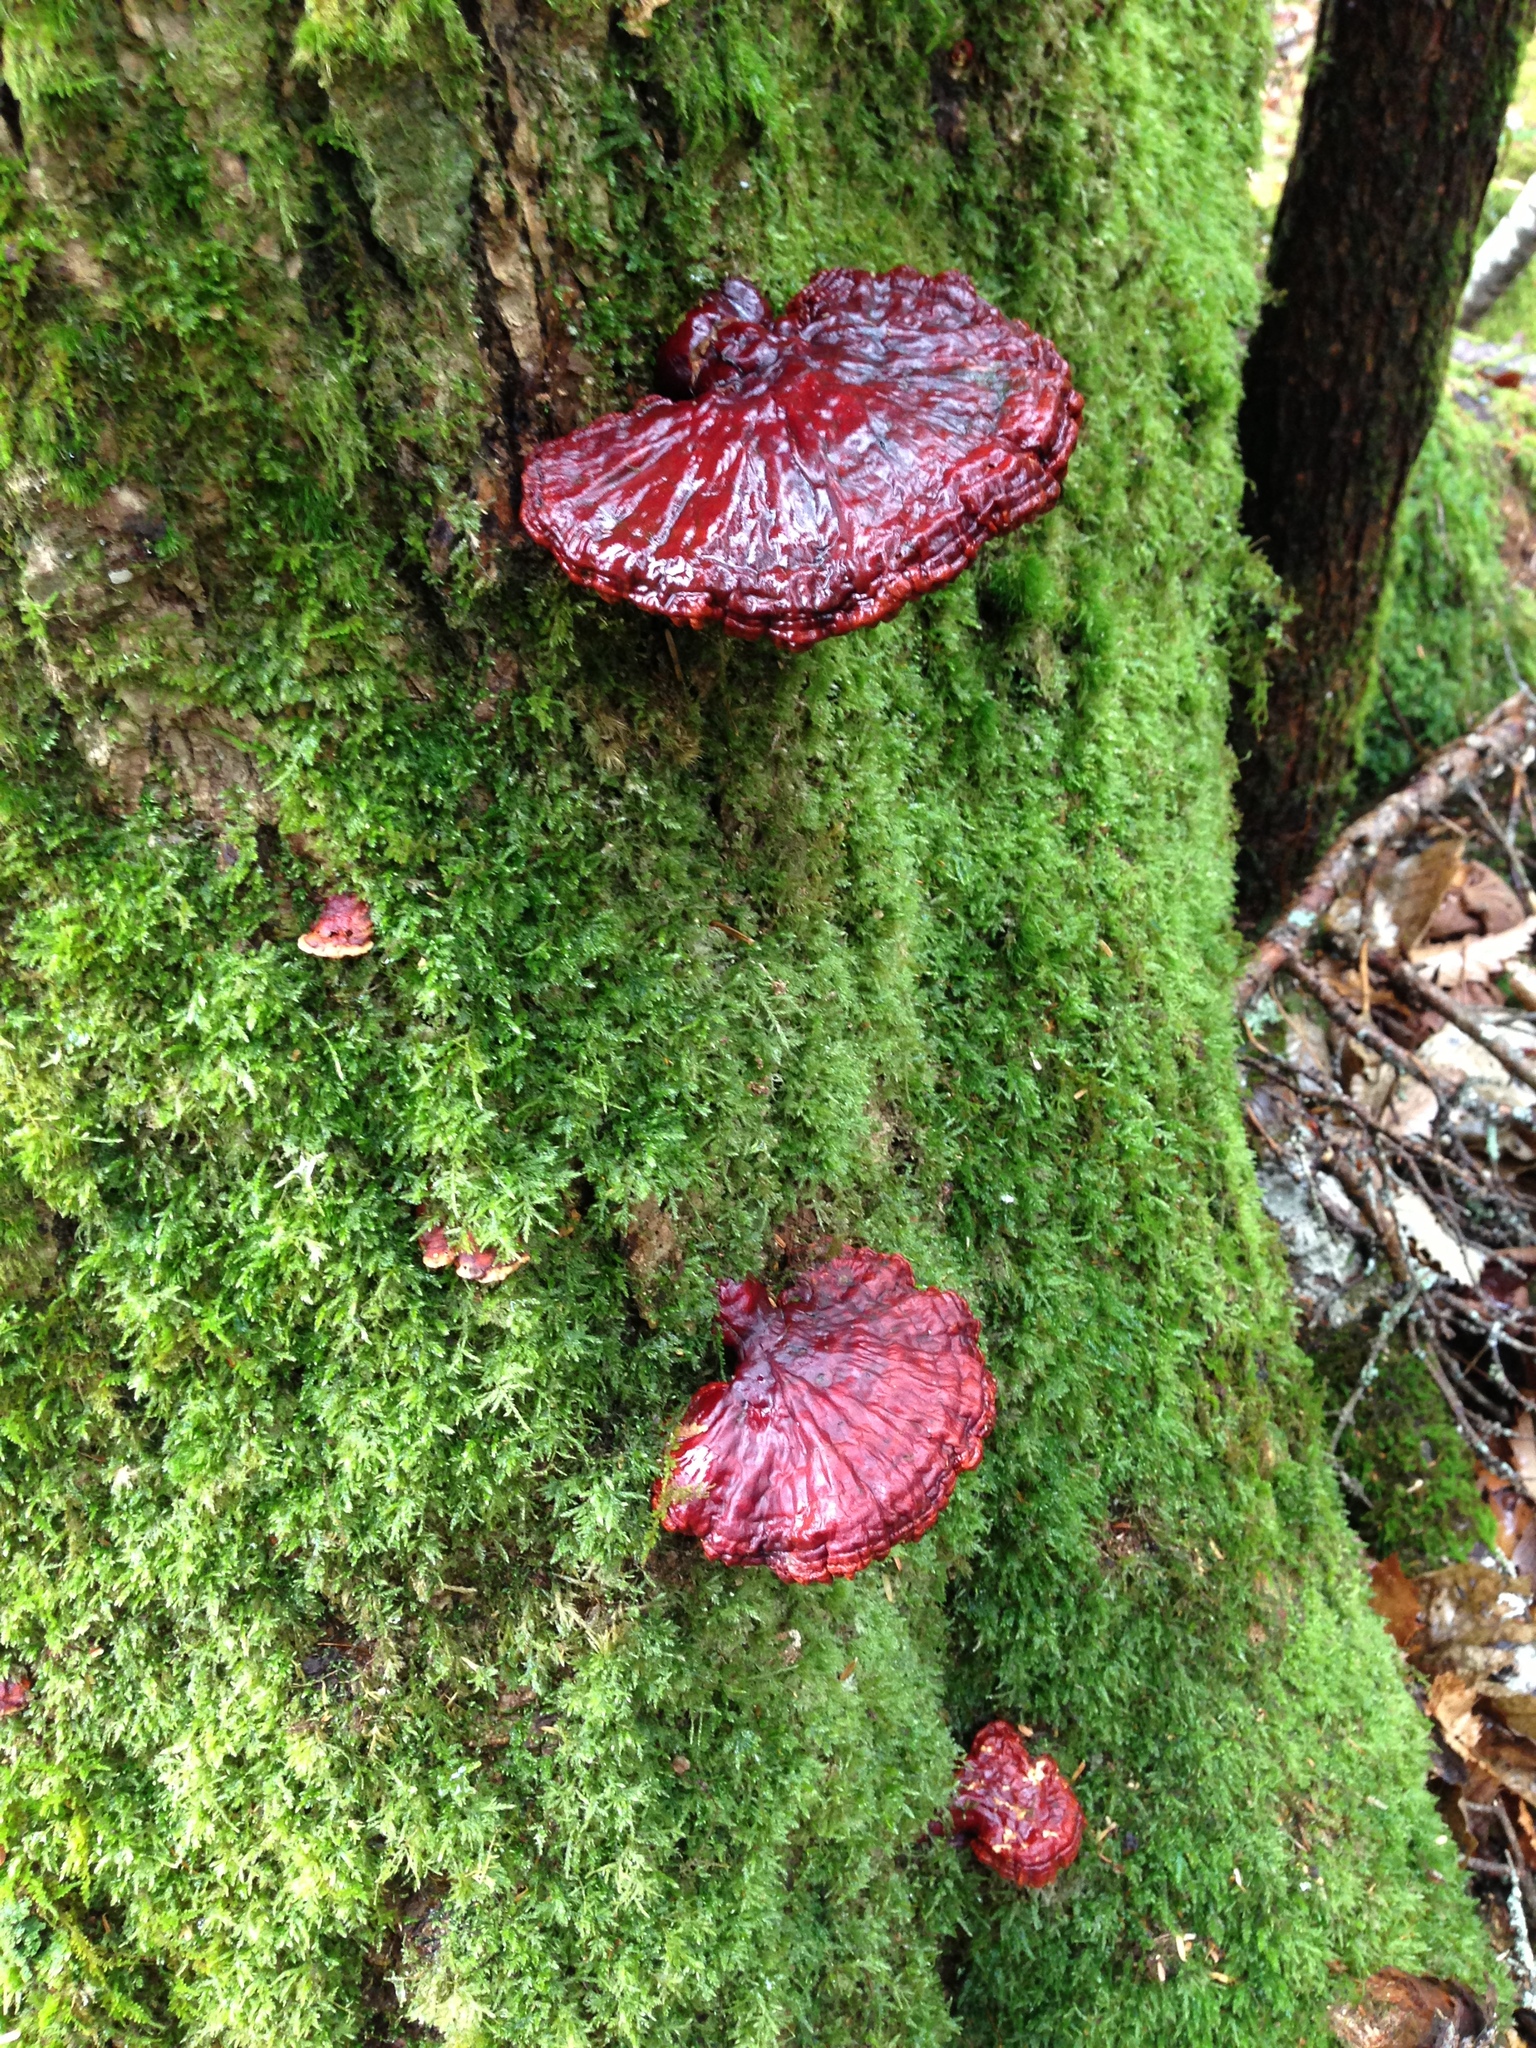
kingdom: Fungi
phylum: Basidiomycota
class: Agaricomycetes
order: Polyporales
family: Polyporaceae
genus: Ganoderma
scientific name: Ganoderma valesiacum
